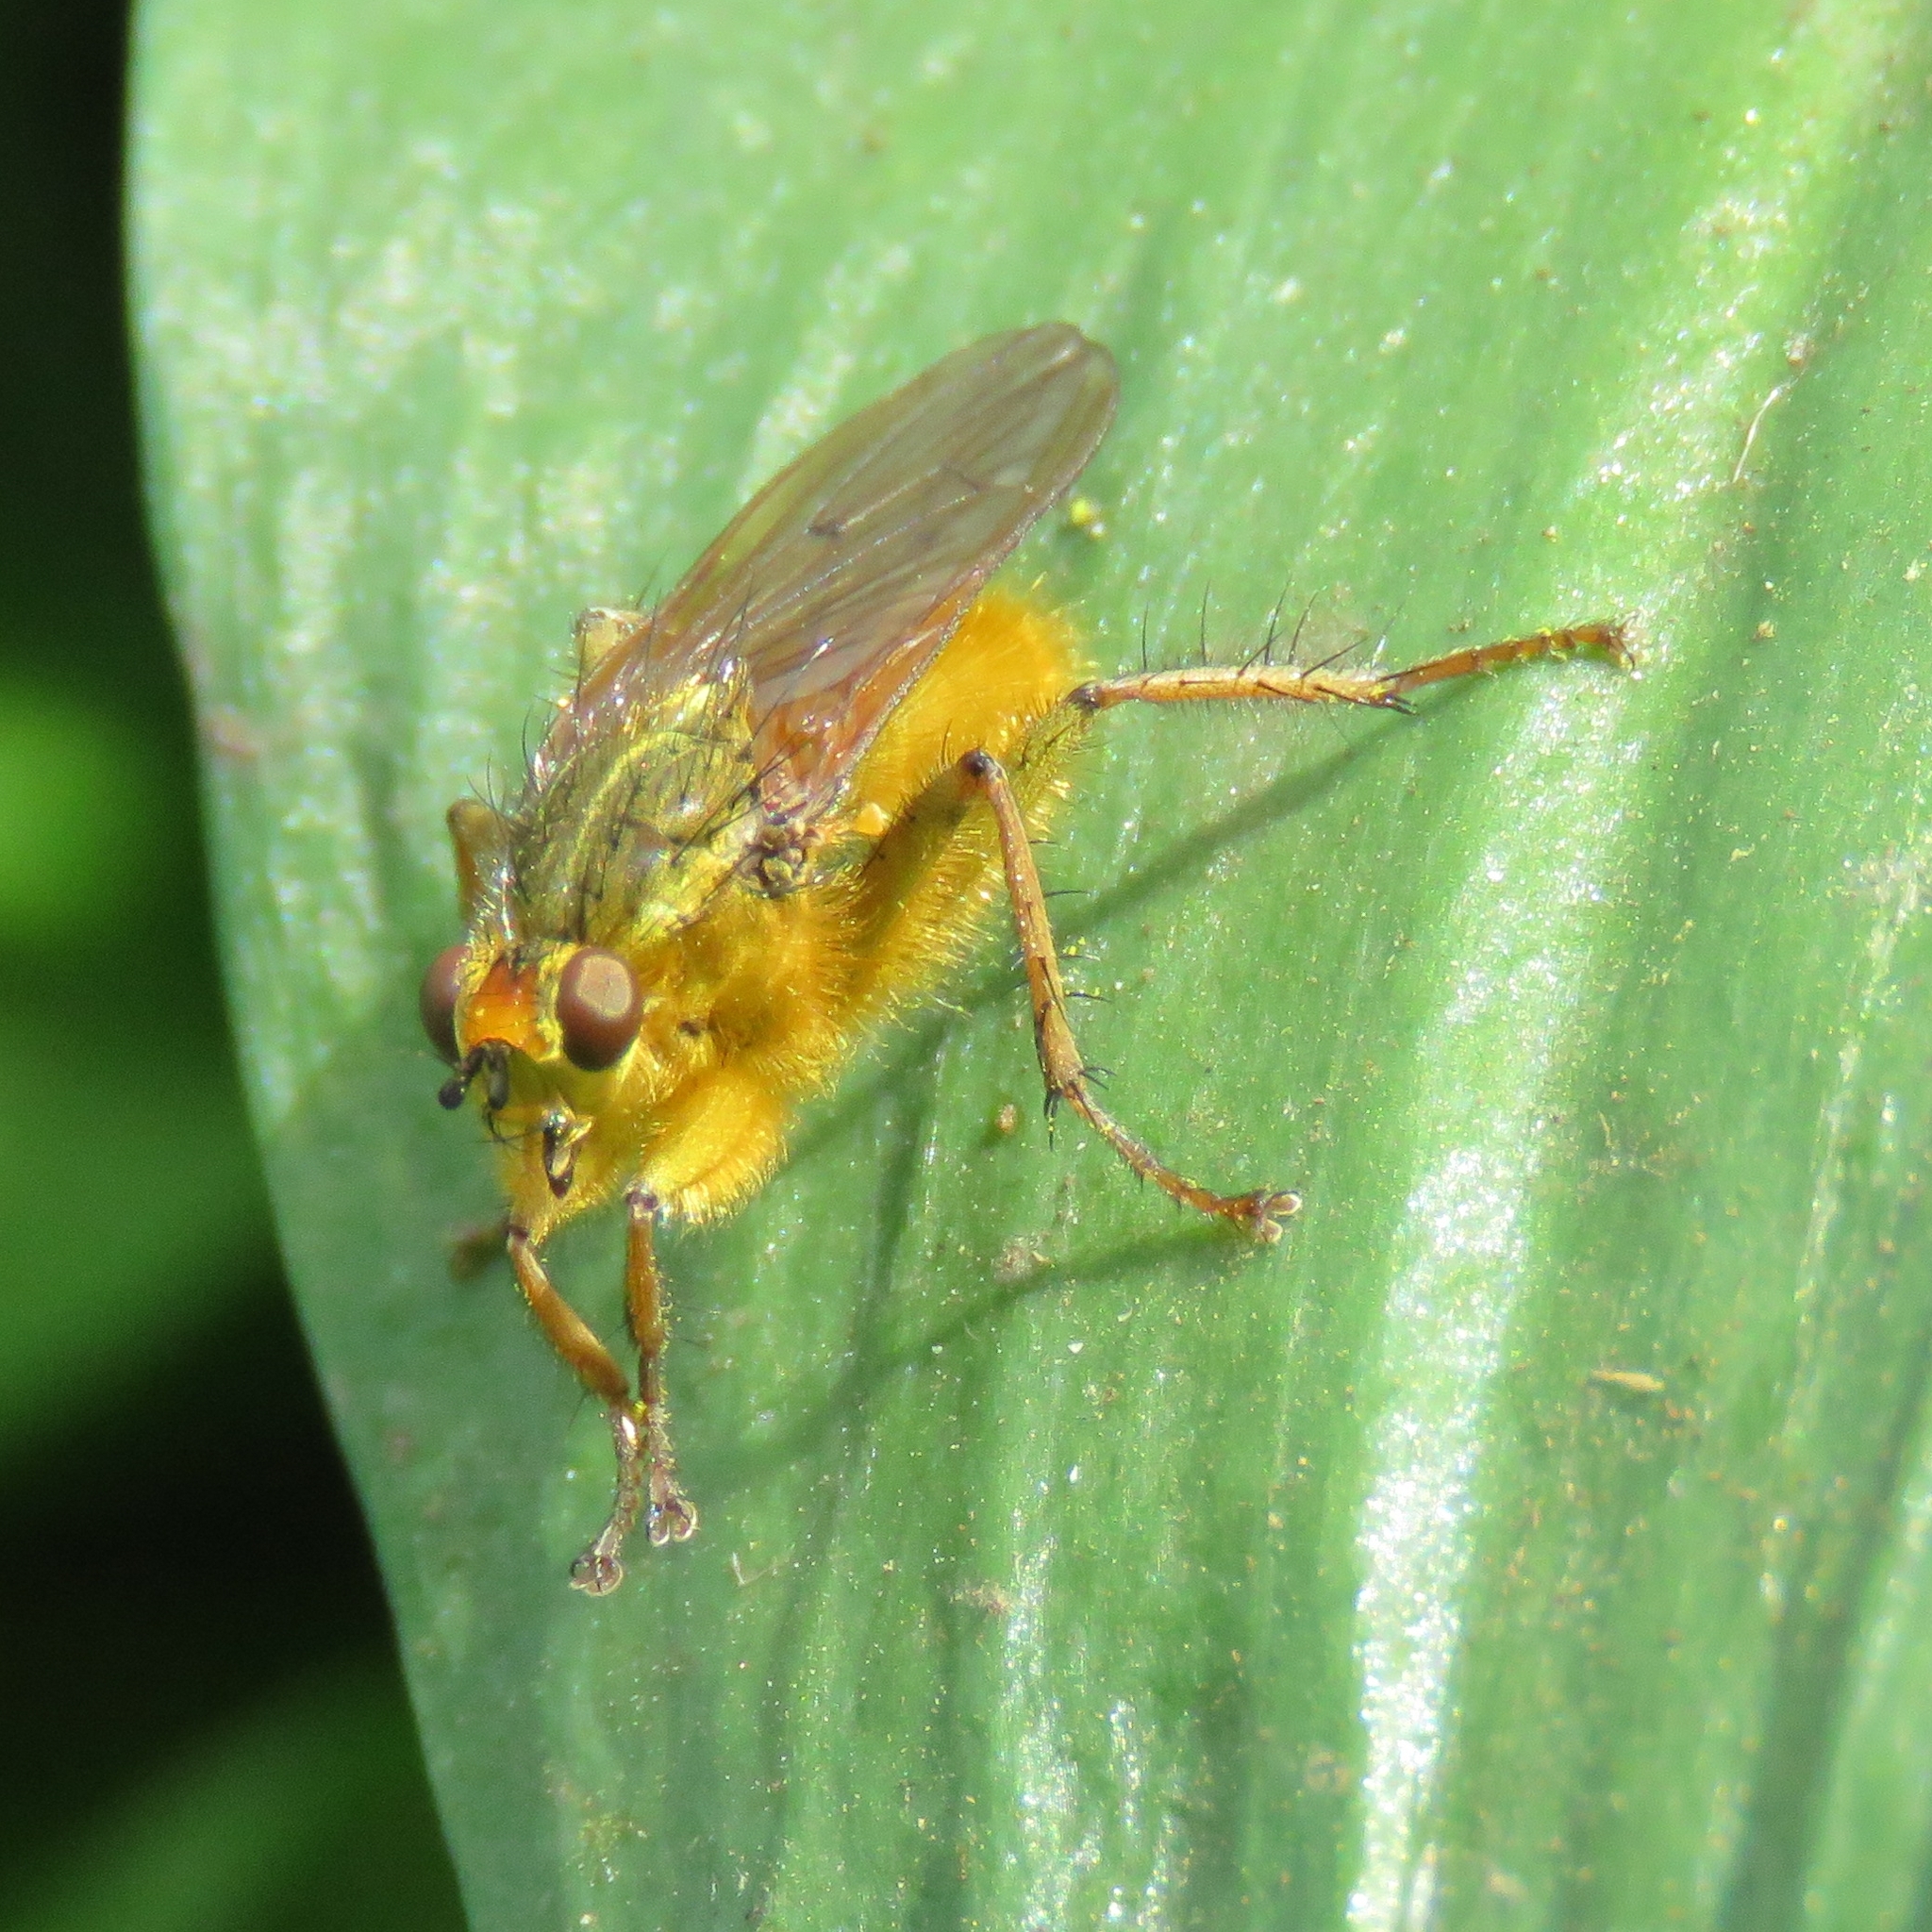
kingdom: Animalia
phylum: Arthropoda
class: Insecta
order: Diptera
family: Scathophagidae
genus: Scathophaga
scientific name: Scathophaga stercoraria
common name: Yellow dung fly
